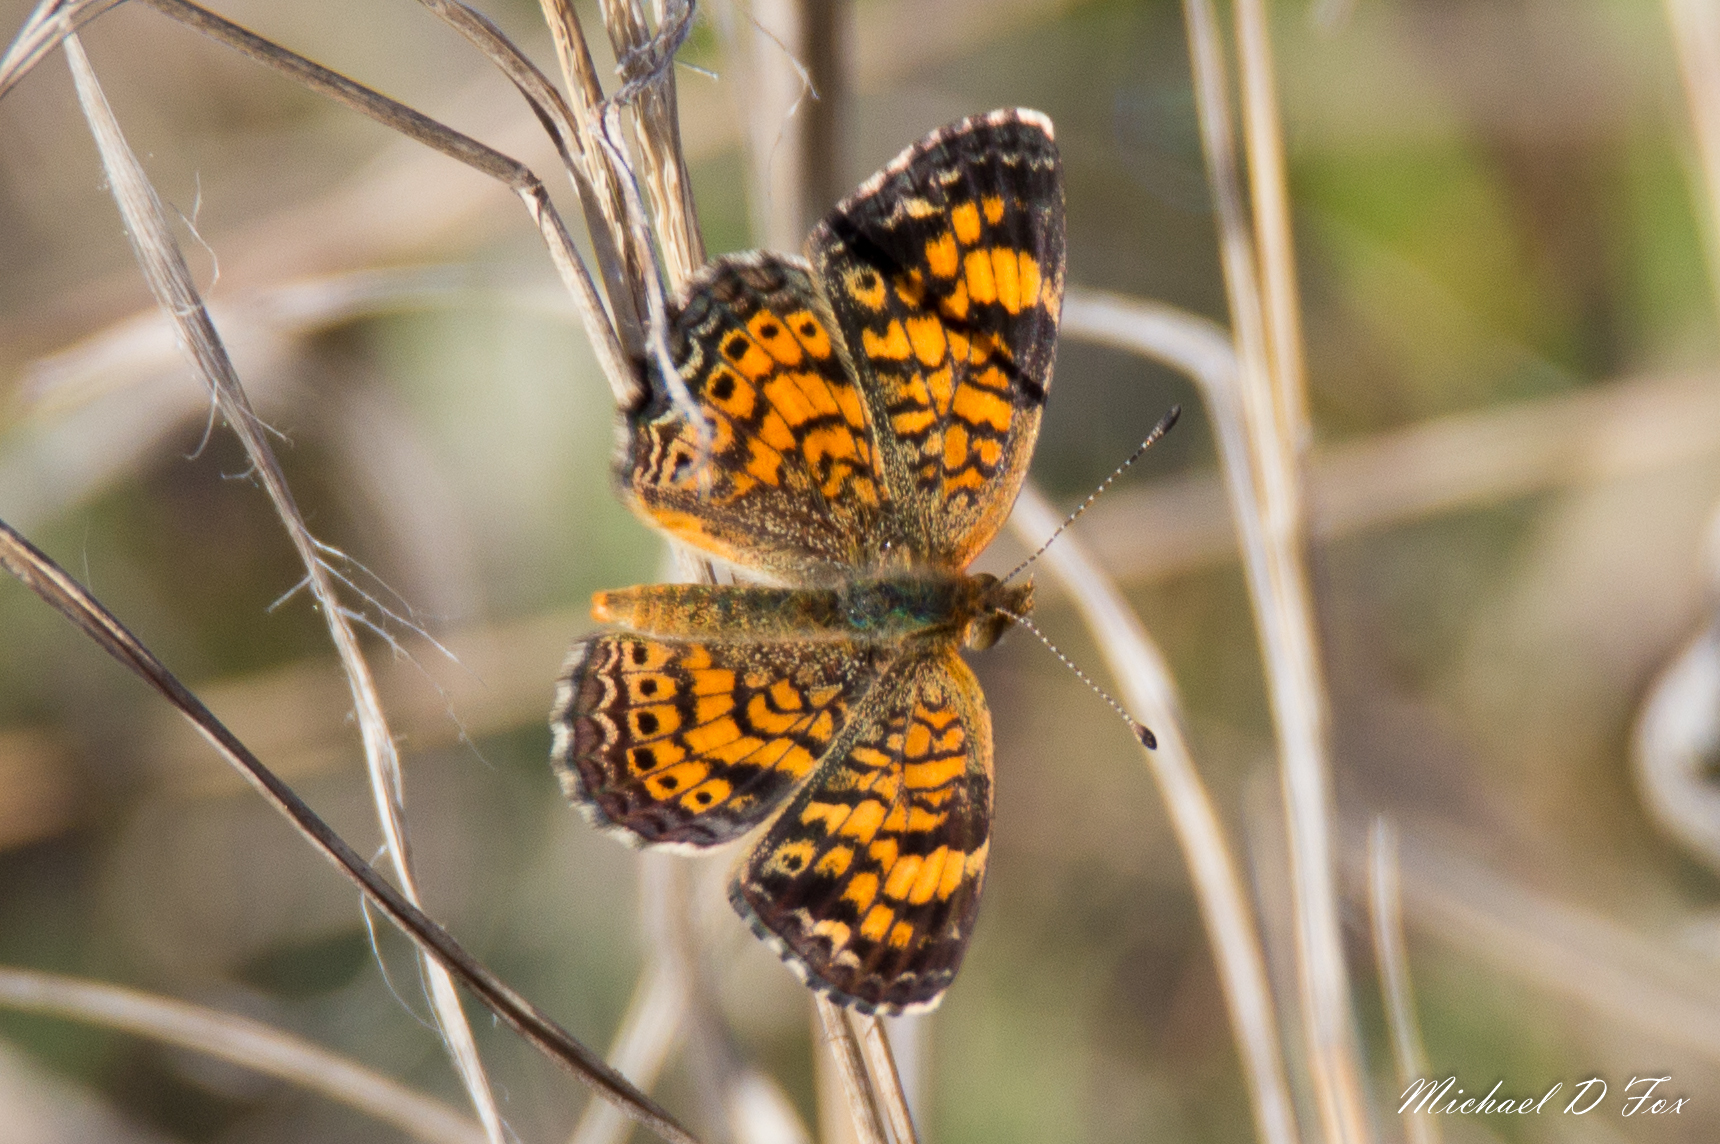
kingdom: Animalia
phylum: Arthropoda
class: Insecta
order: Lepidoptera
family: Nymphalidae
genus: Phyciodes
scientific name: Phyciodes tharos
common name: Pearl crescent
